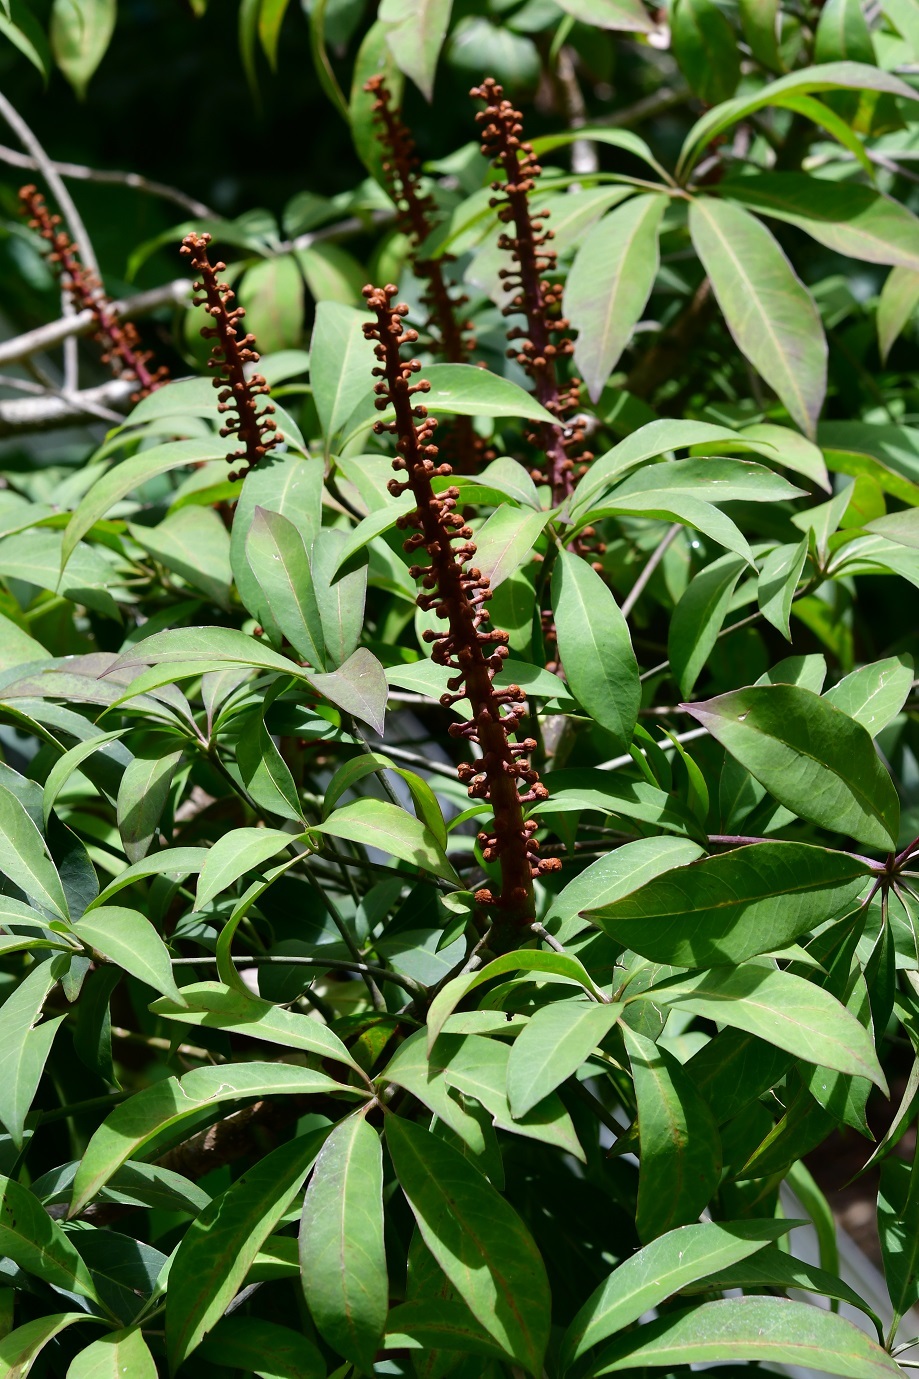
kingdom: Plantae
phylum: Tracheophyta
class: Magnoliopsida
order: Apiales
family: Araliaceae
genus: Oreopanax
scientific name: Oreopanax xalapensis
